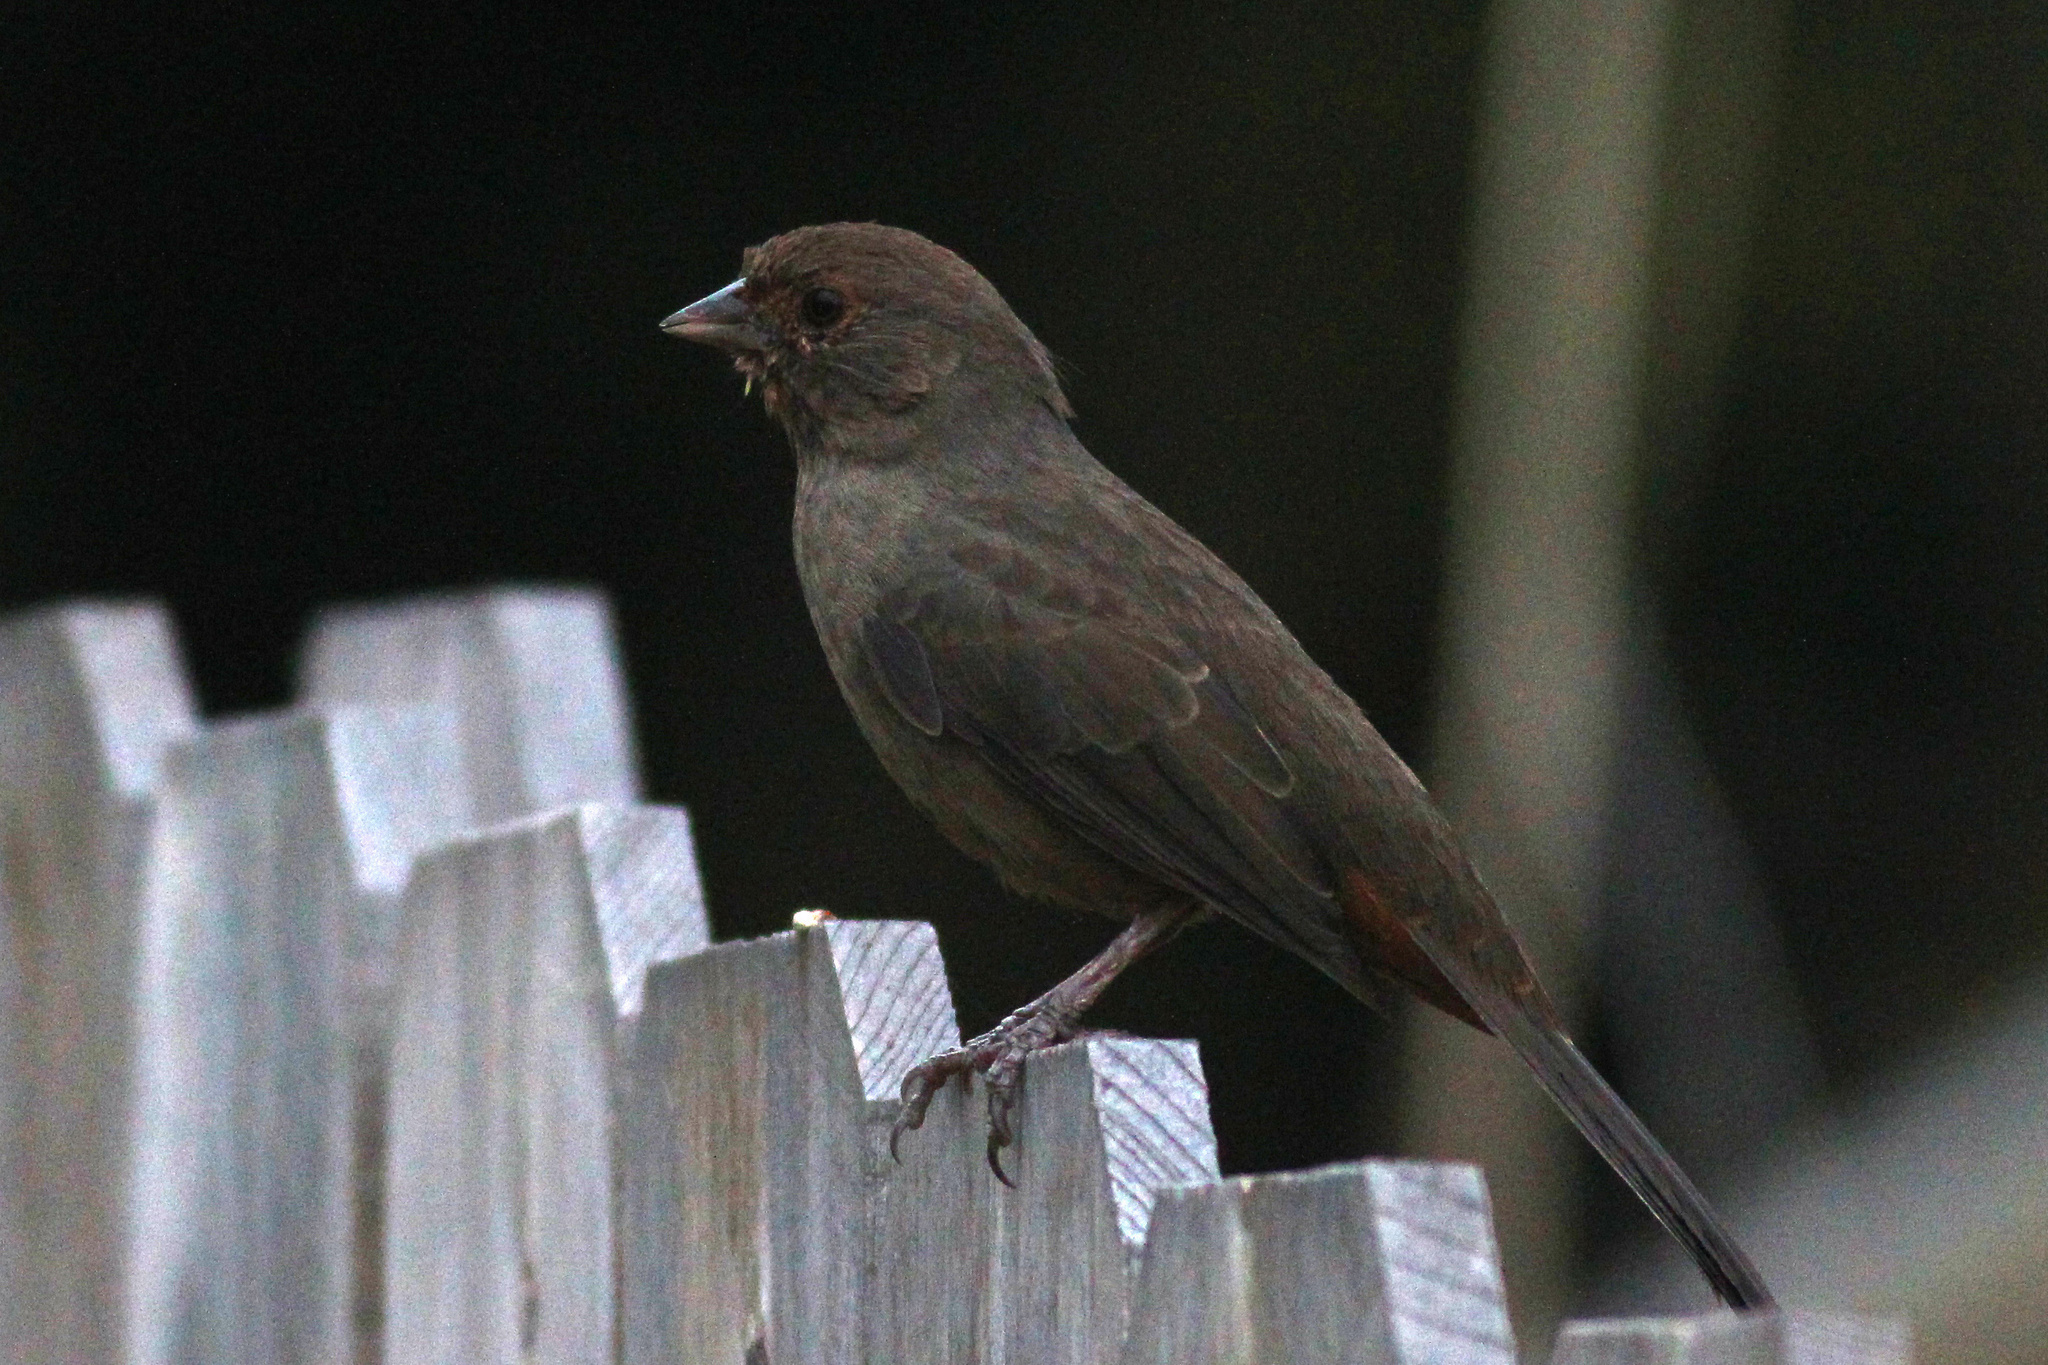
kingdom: Animalia
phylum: Chordata
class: Aves
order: Passeriformes
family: Passerellidae
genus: Melozone
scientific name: Melozone crissalis
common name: California towhee
